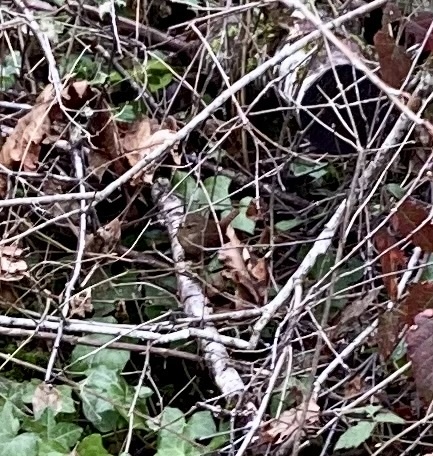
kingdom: Animalia
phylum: Chordata
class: Aves
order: Passeriformes
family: Troglodytidae
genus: Troglodytes
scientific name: Troglodytes pacificus
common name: Pacific wren
